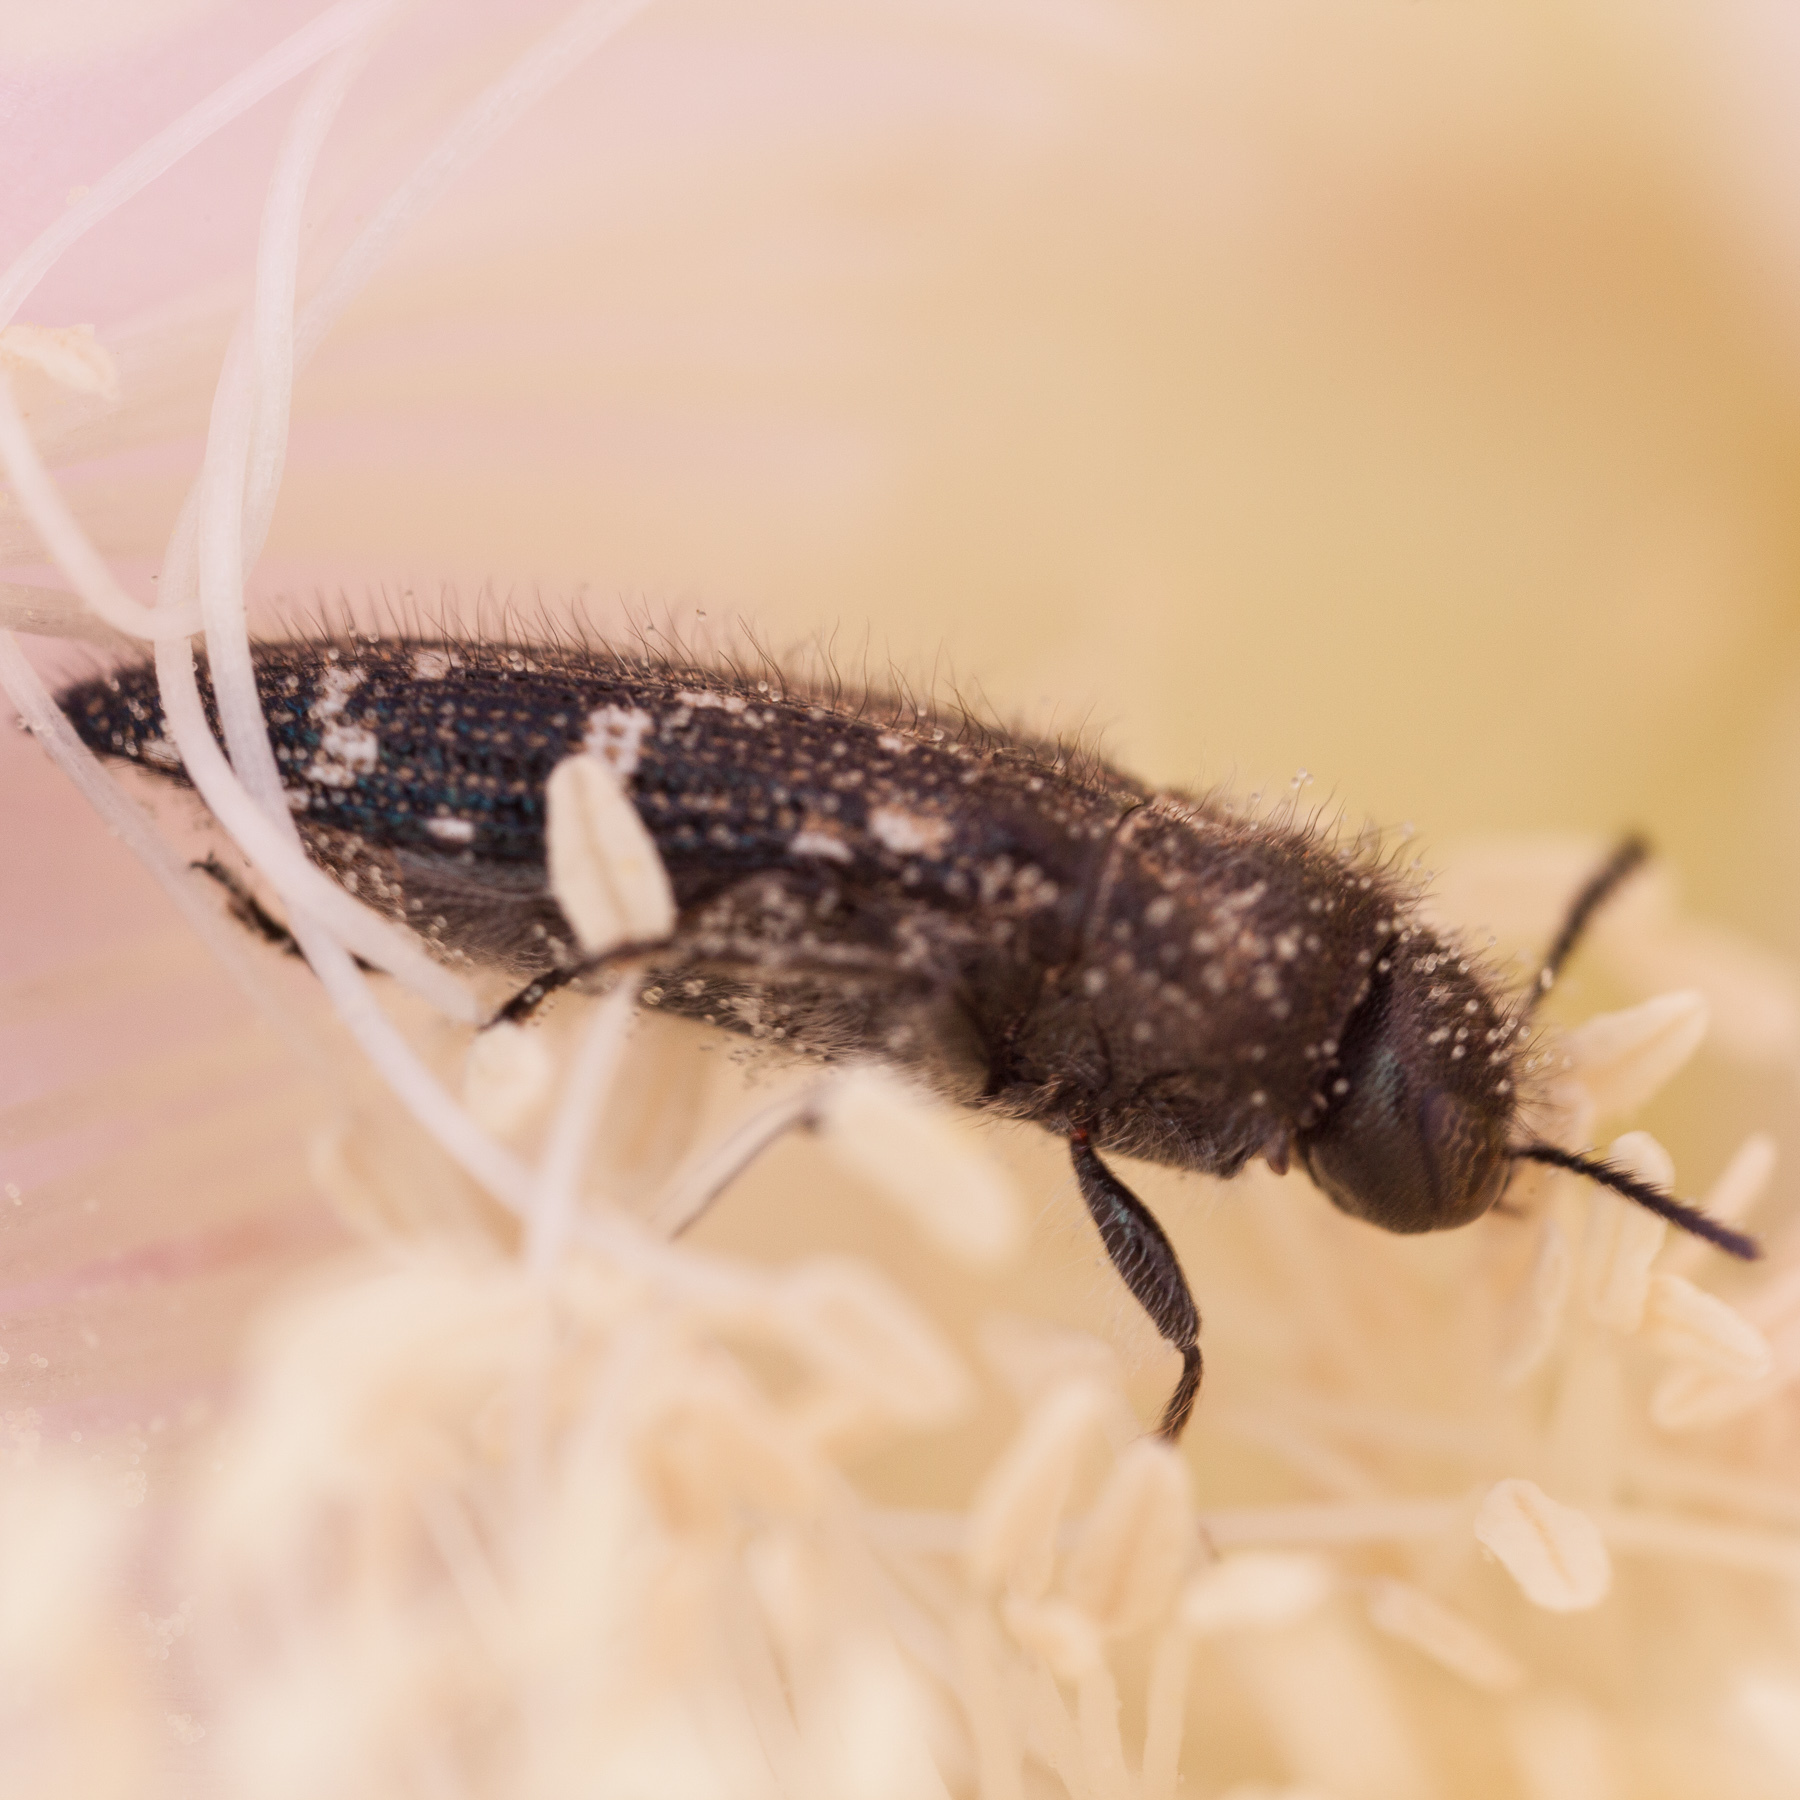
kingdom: Animalia
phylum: Arthropoda
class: Insecta
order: Coleoptera
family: Buprestidae
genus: Acmaeodera
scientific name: Acmaeodera ornatoides
